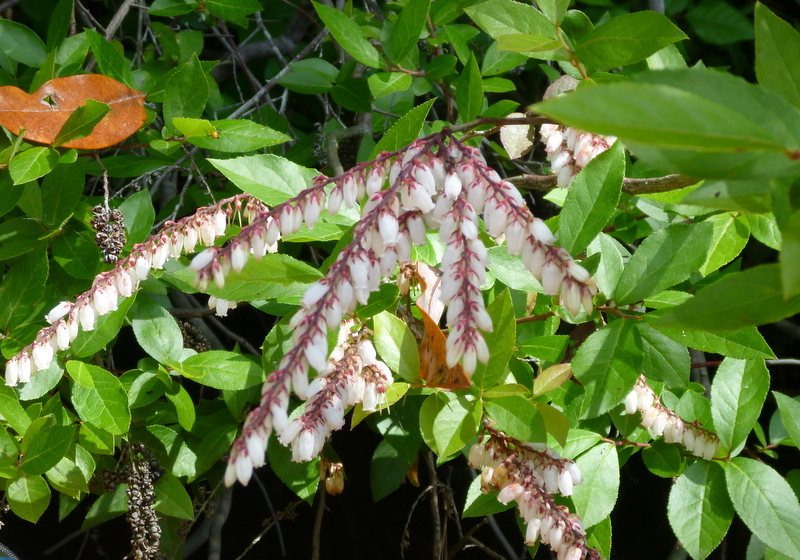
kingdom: Plantae
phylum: Tracheophyta
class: Magnoliopsida
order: Ericales
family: Ericaceae
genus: Eubotrys
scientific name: Eubotrys racemosa
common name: Fetterbush
